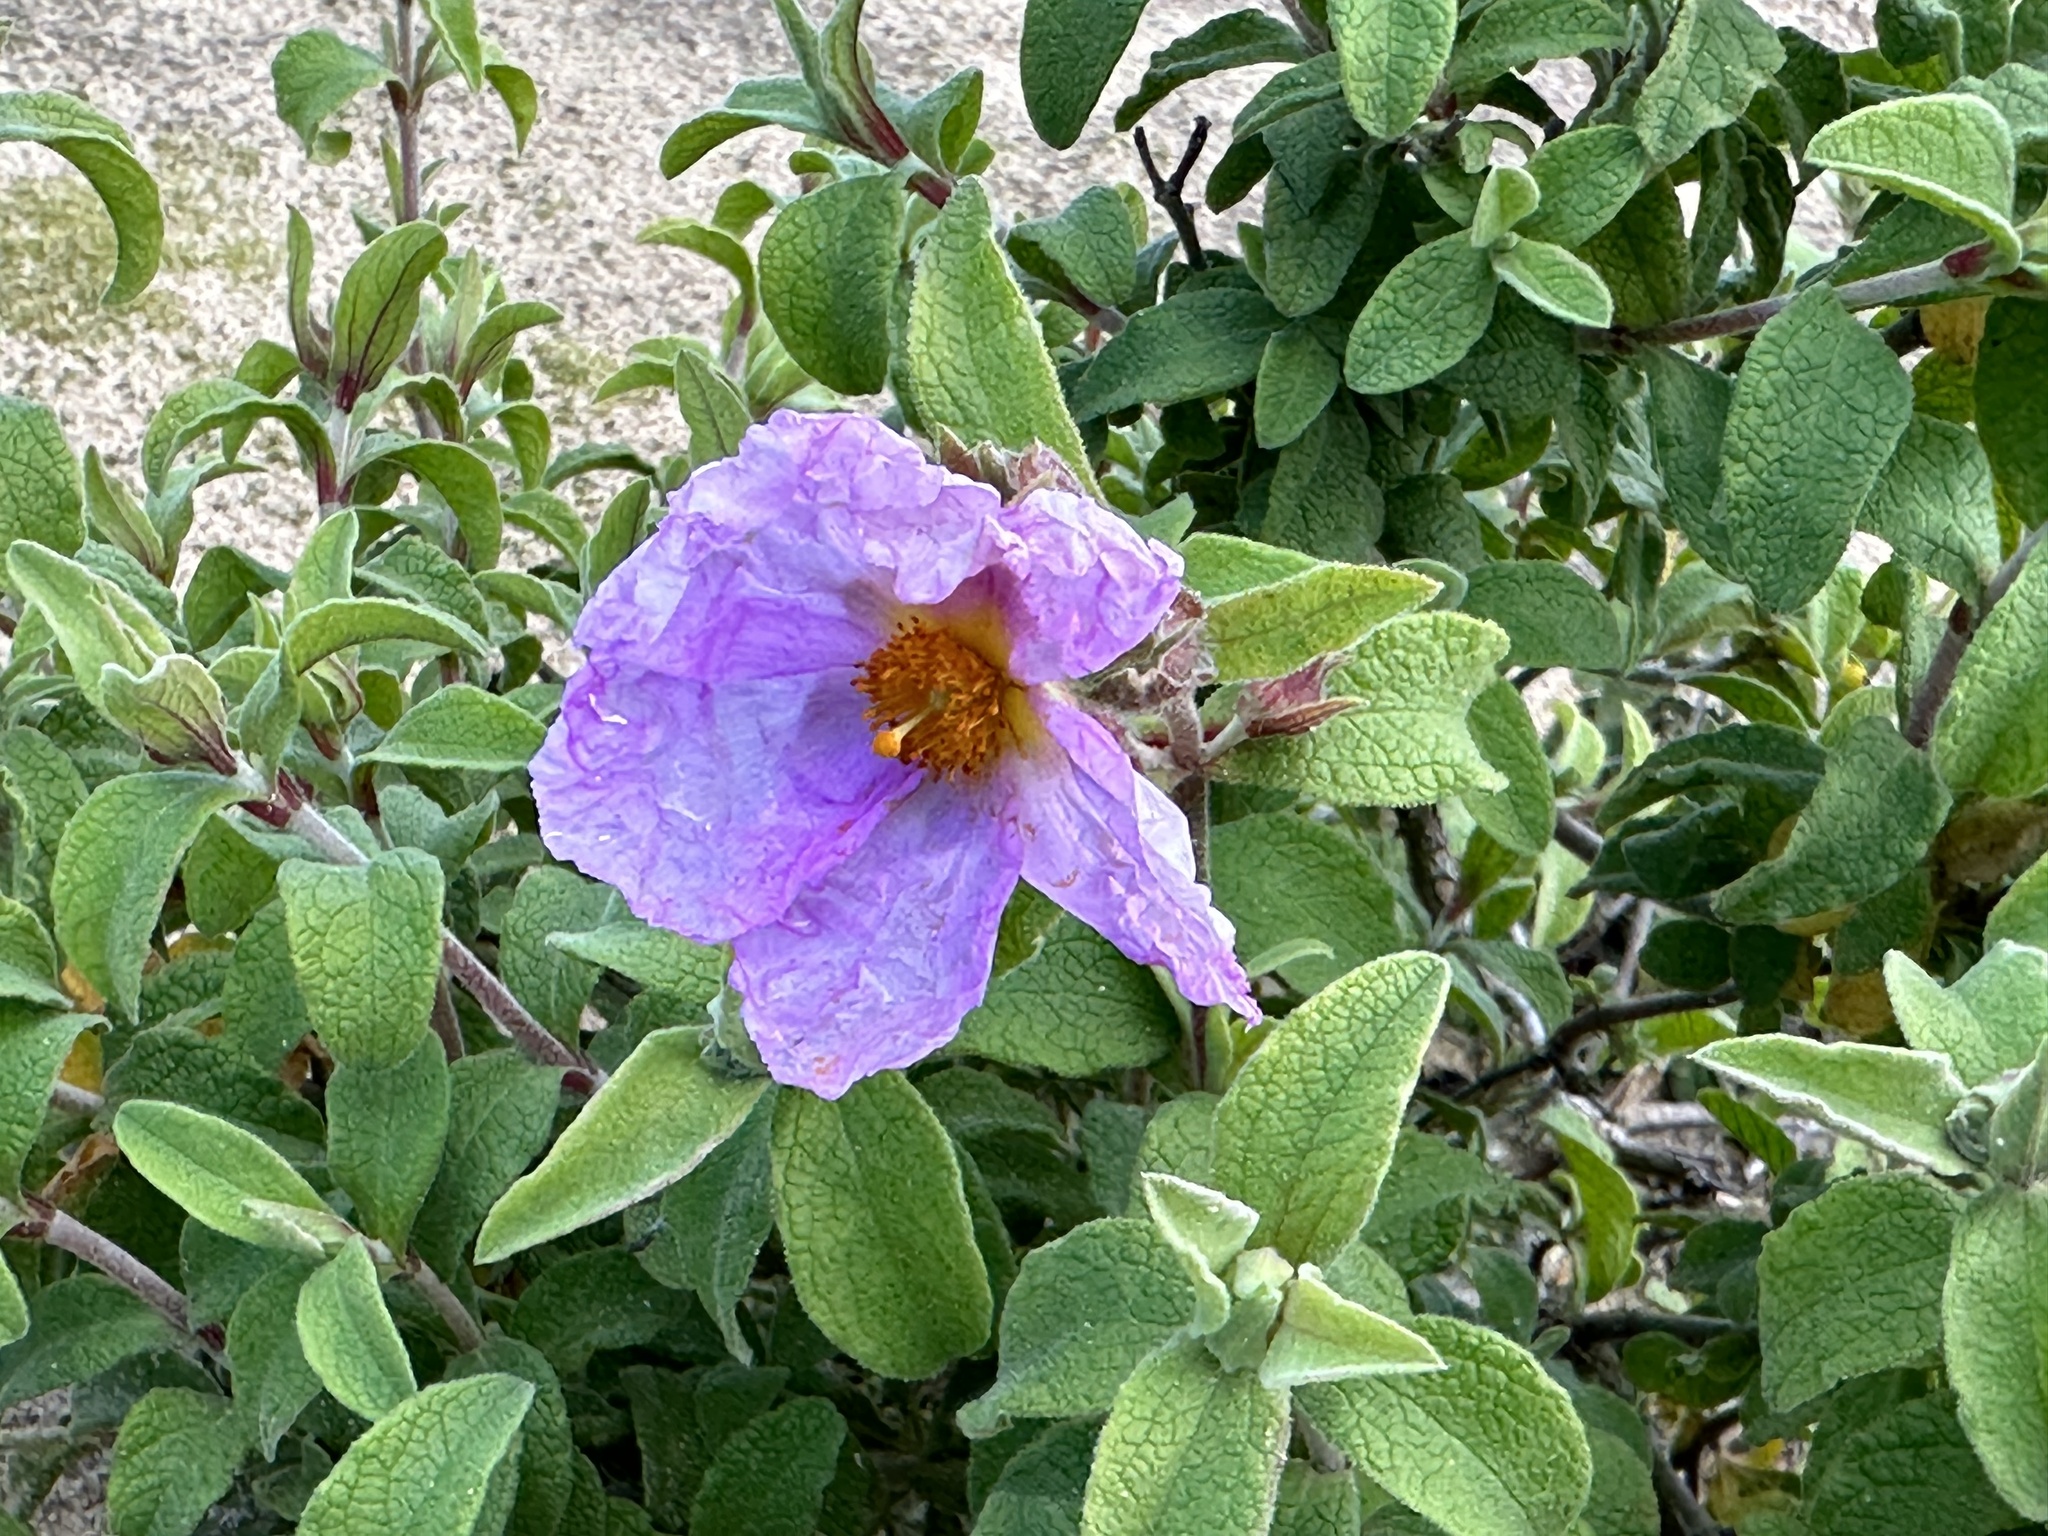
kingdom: Plantae
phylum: Tracheophyta
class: Magnoliopsida
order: Malvales
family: Cistaceae
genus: Cistus
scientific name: Cistus creticus
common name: Cretan rockrose
